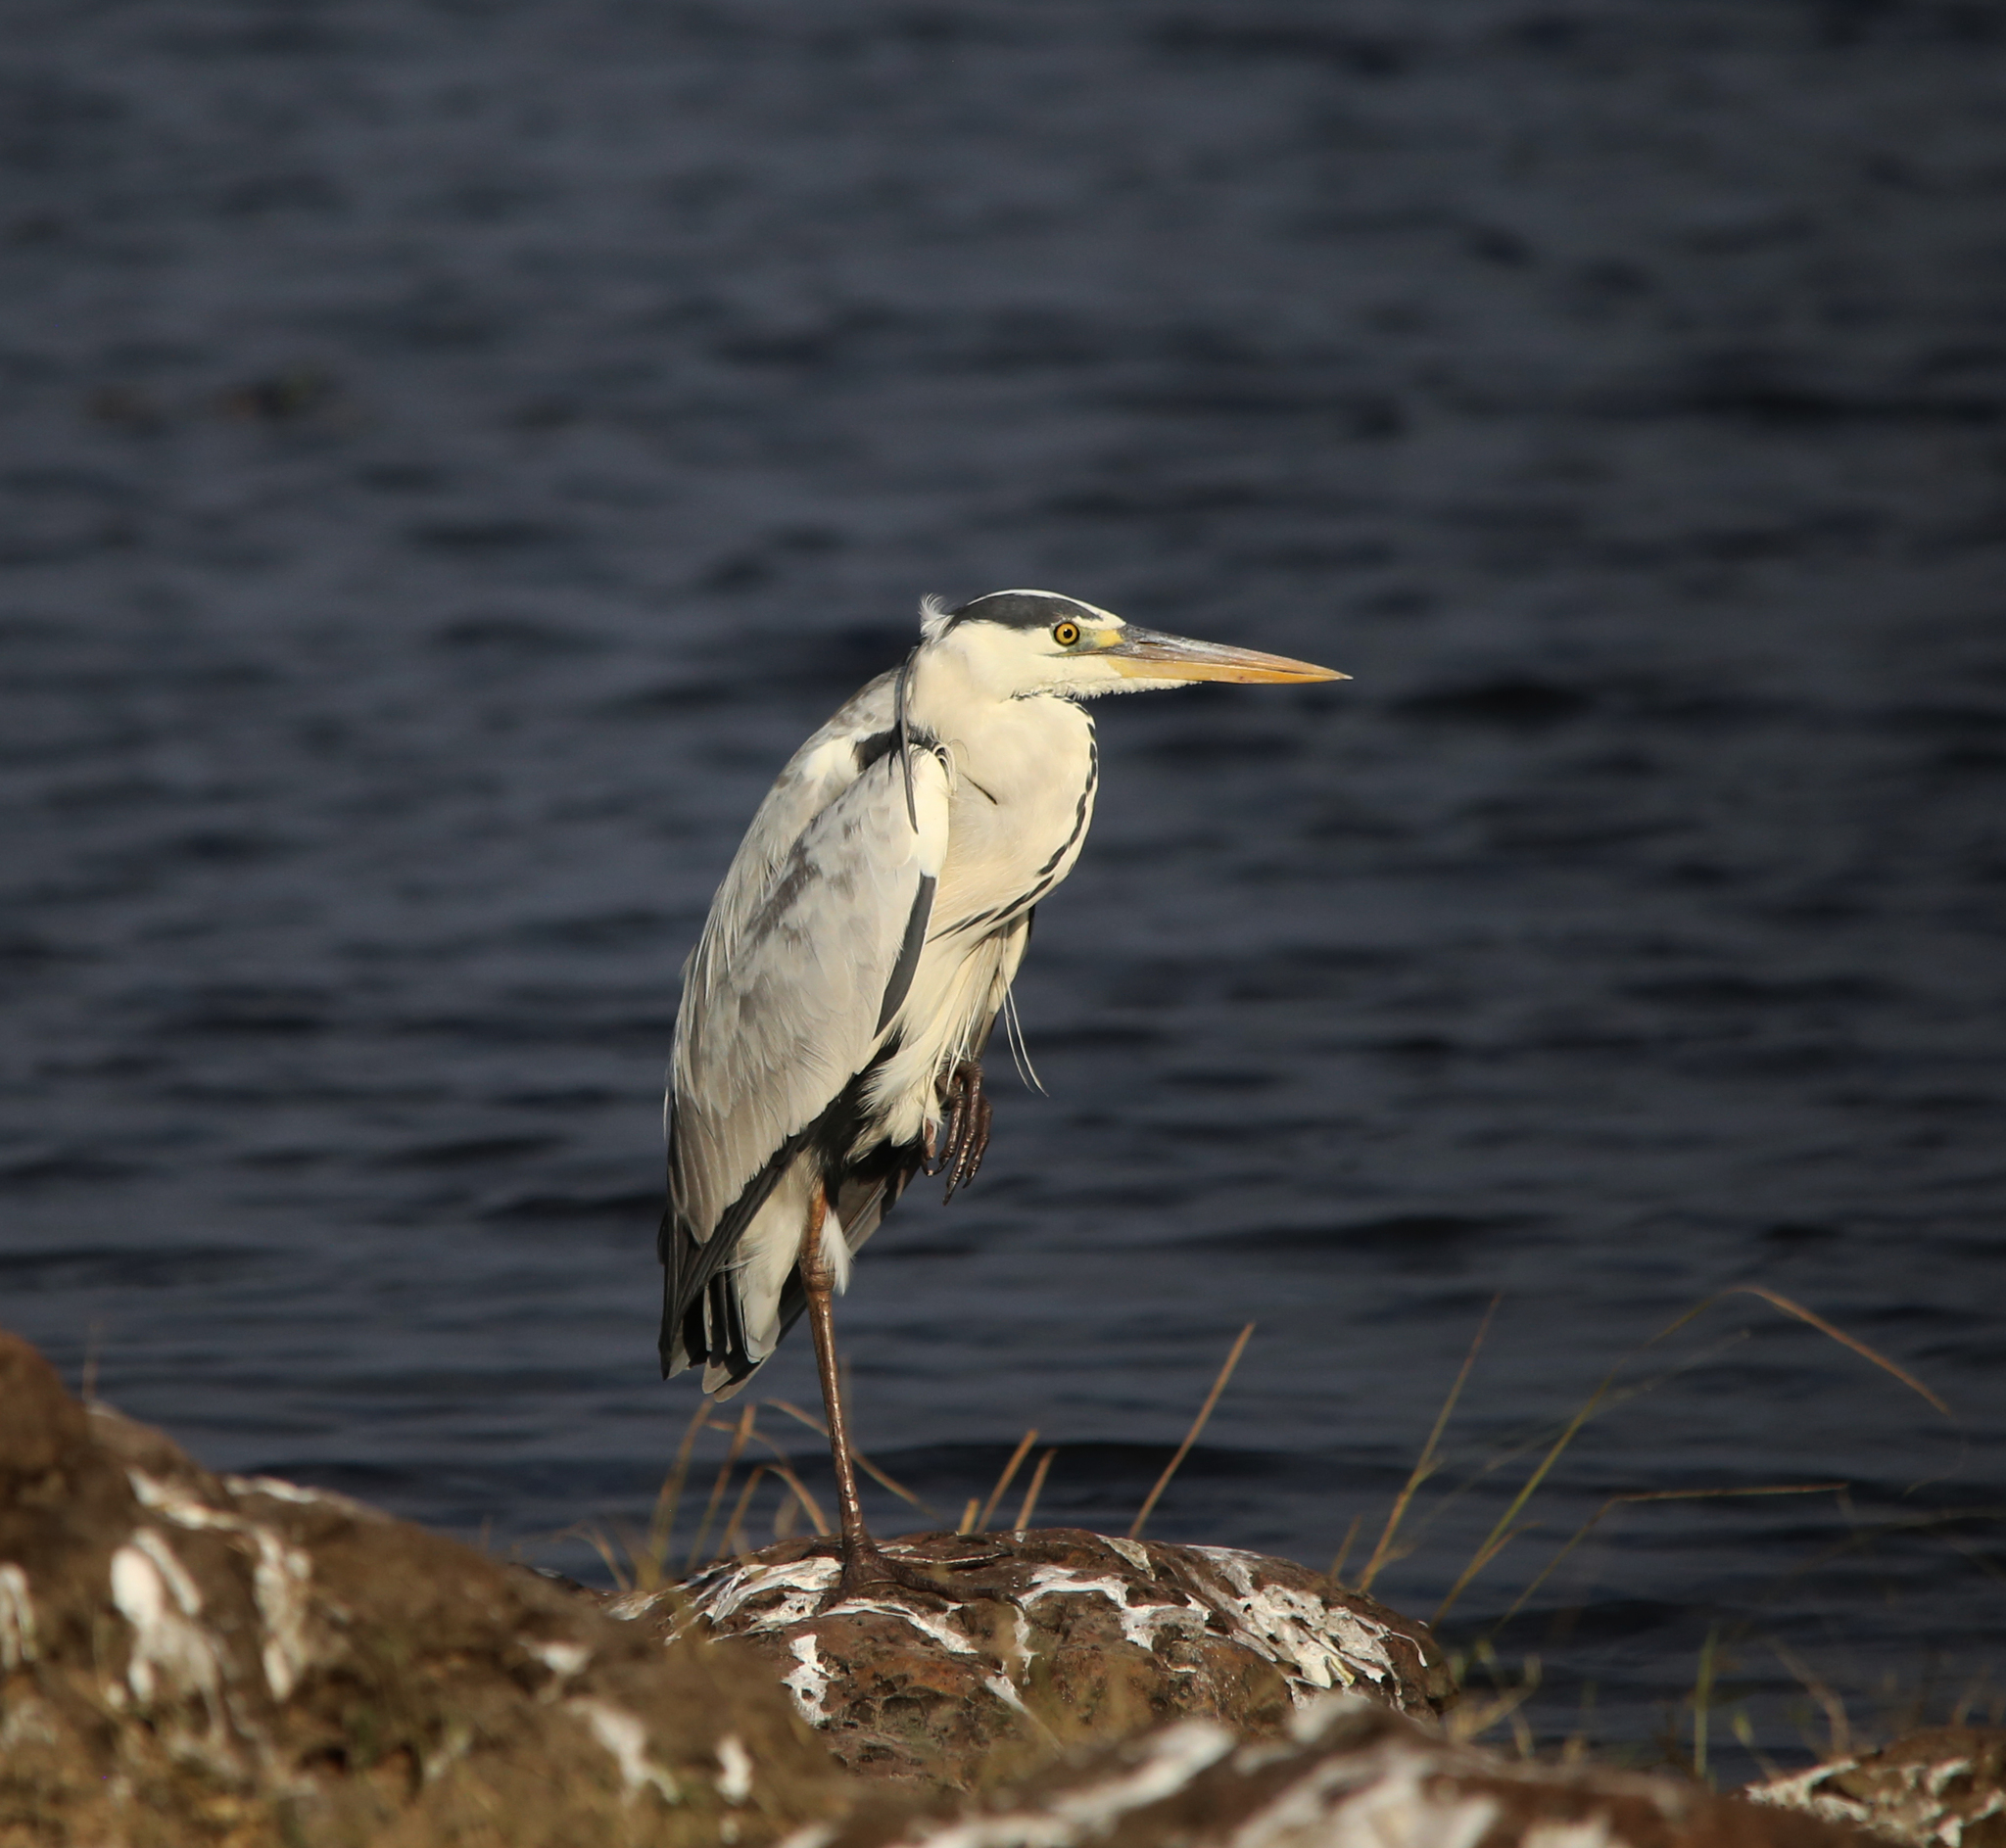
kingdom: Animalia
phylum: Chordata
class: Aves
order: Pelecaniformes
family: Ardeidae
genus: Ardea
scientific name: Ardea cinerea
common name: Grey heron
